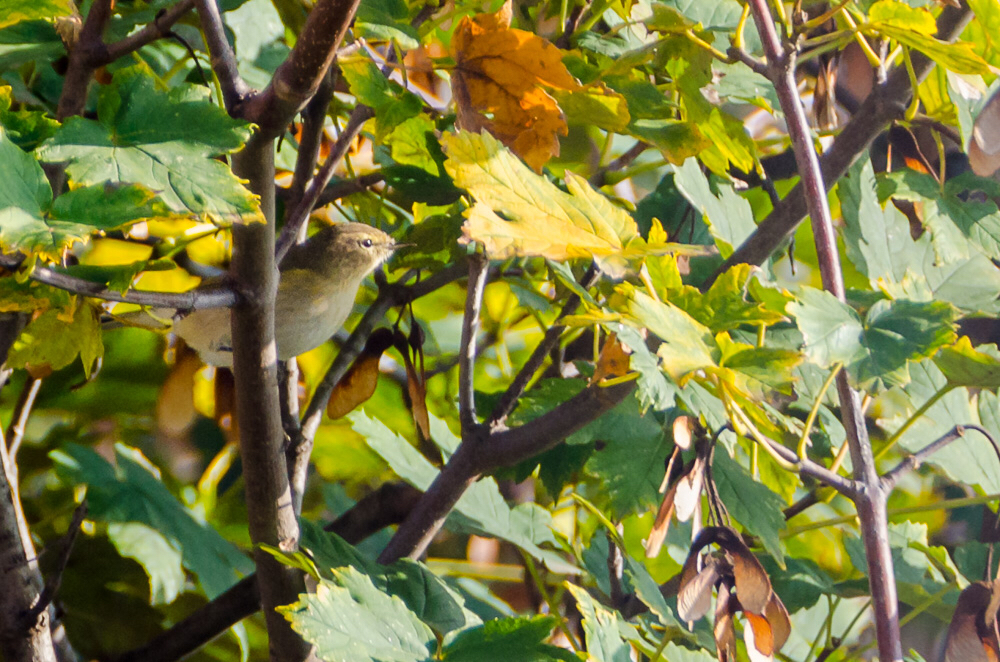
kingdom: Animalia
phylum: Chordata
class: Aves
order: Passeriformes
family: Phylloscopidae
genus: Phylloscopus
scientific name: Phylloscopus collybita
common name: Common chiffchaff
